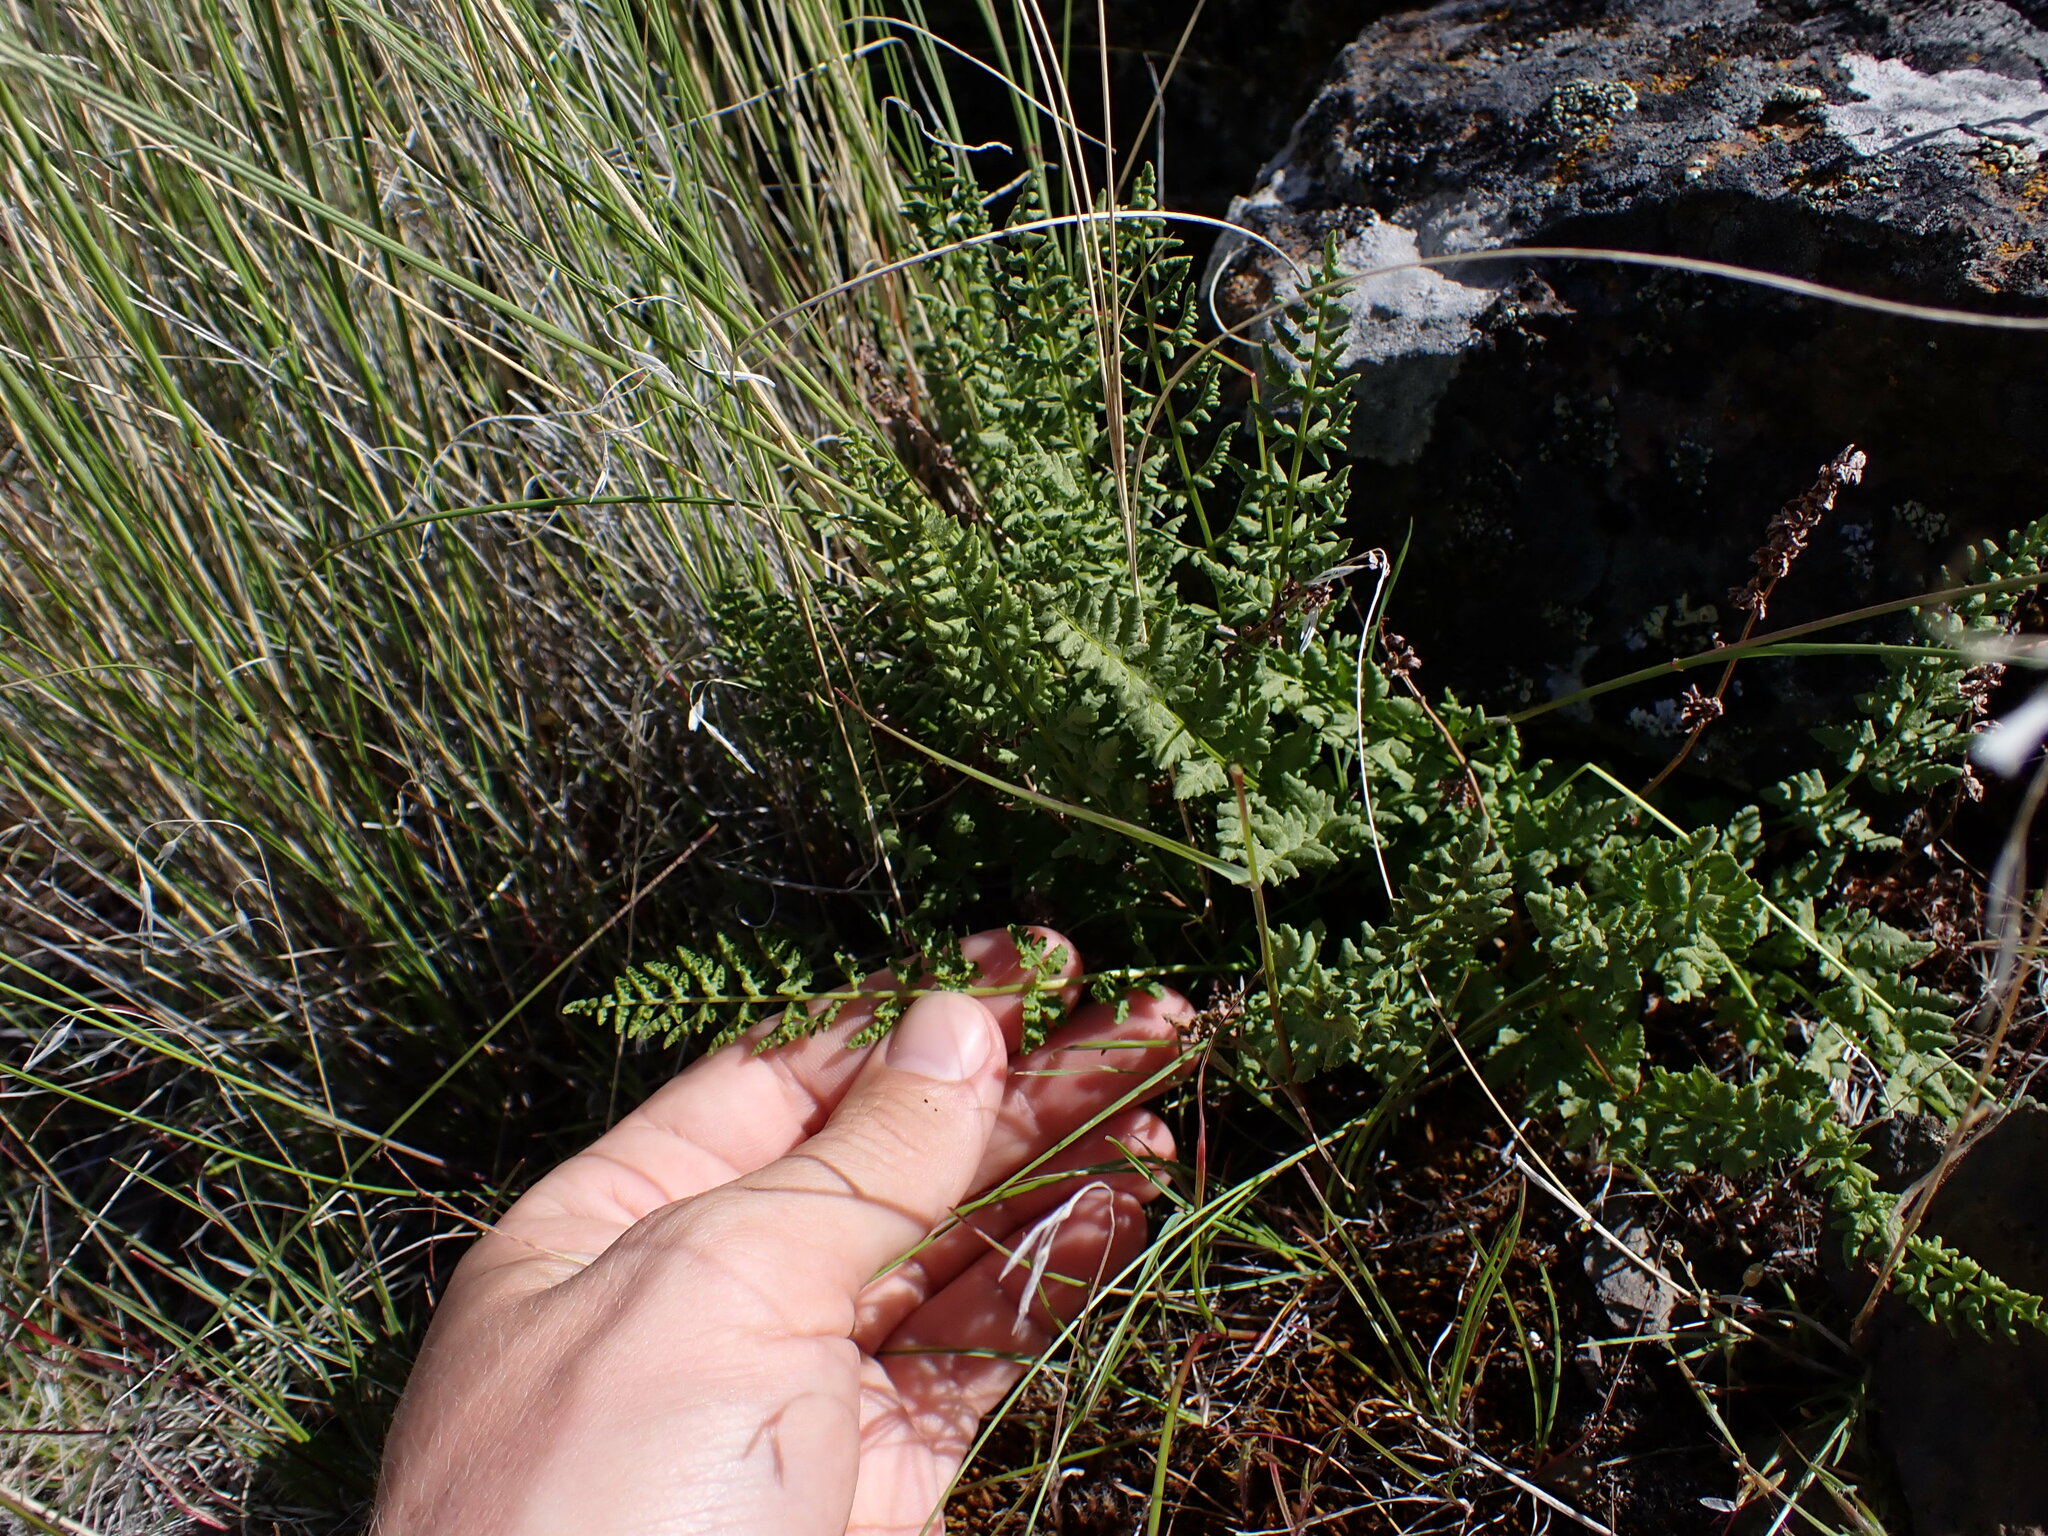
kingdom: Plantae
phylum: Tracheophyta
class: Polypodiopsida
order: Polypodiales
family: Woodsiaceae
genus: Physematium
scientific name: Physematium oreganum
